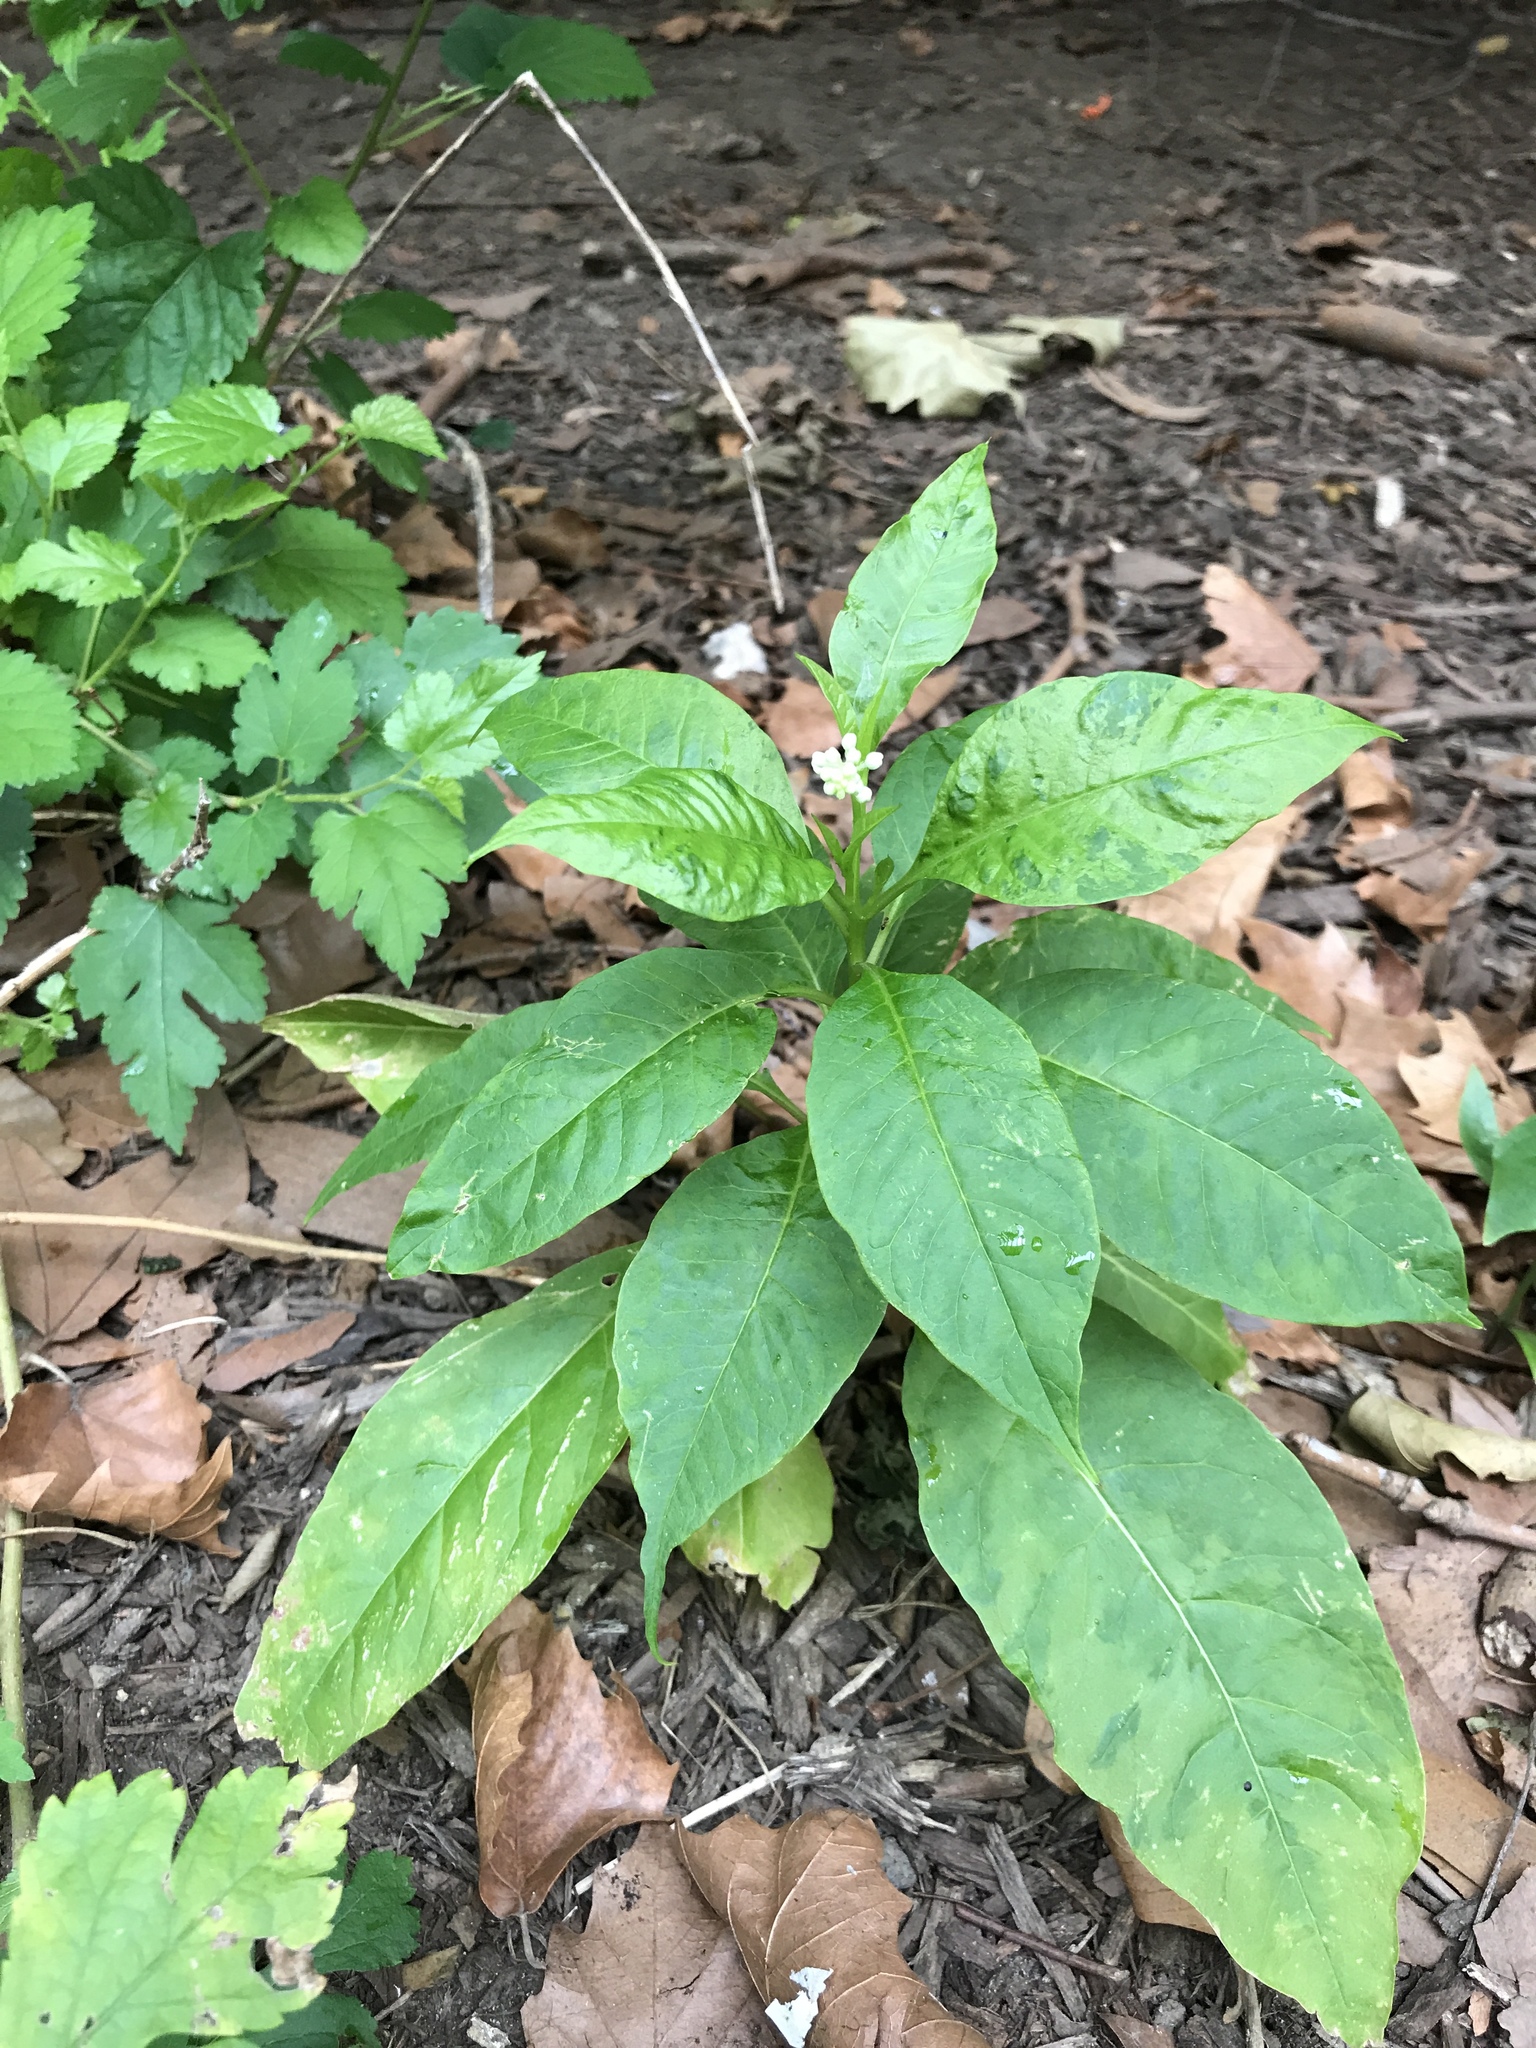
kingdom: Plantae
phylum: Tracheophyta
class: Magnoliopsida
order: Caryophyllales
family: Phytolaccaceae
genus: Phytolacca
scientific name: Phytolacca americana
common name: American pokeweed
